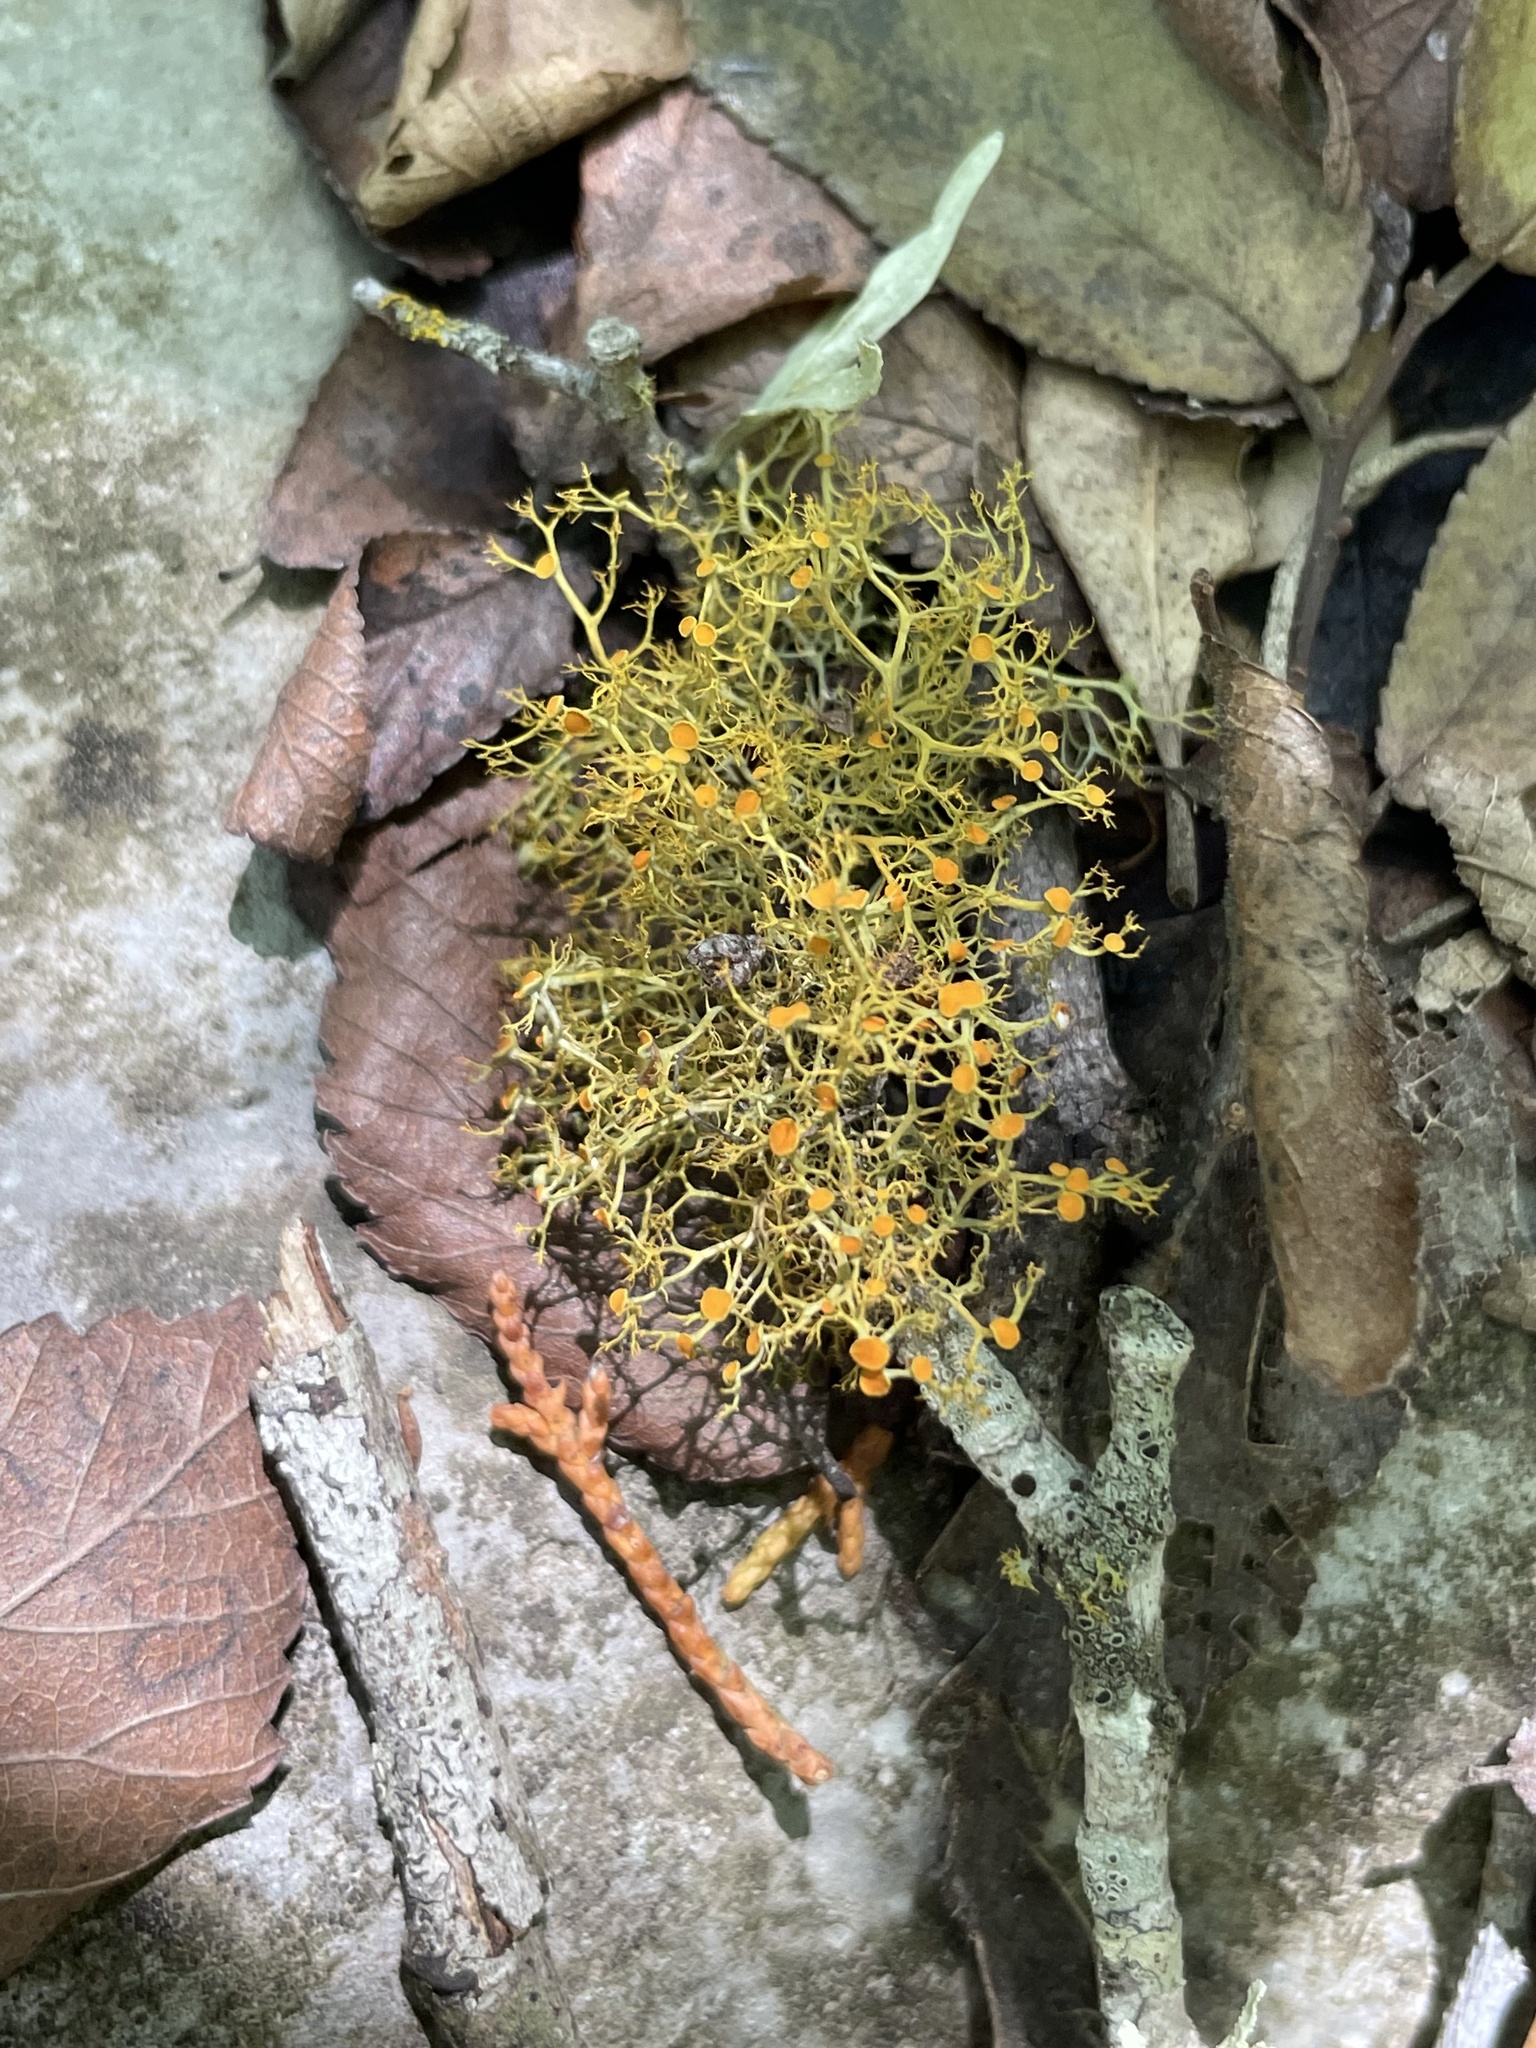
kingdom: Fungi
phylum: Ascomycota
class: Lecanoromycetes
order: Teloschistales
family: Teloschistaceae
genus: Teloschistes
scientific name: Teloschistes exilis
